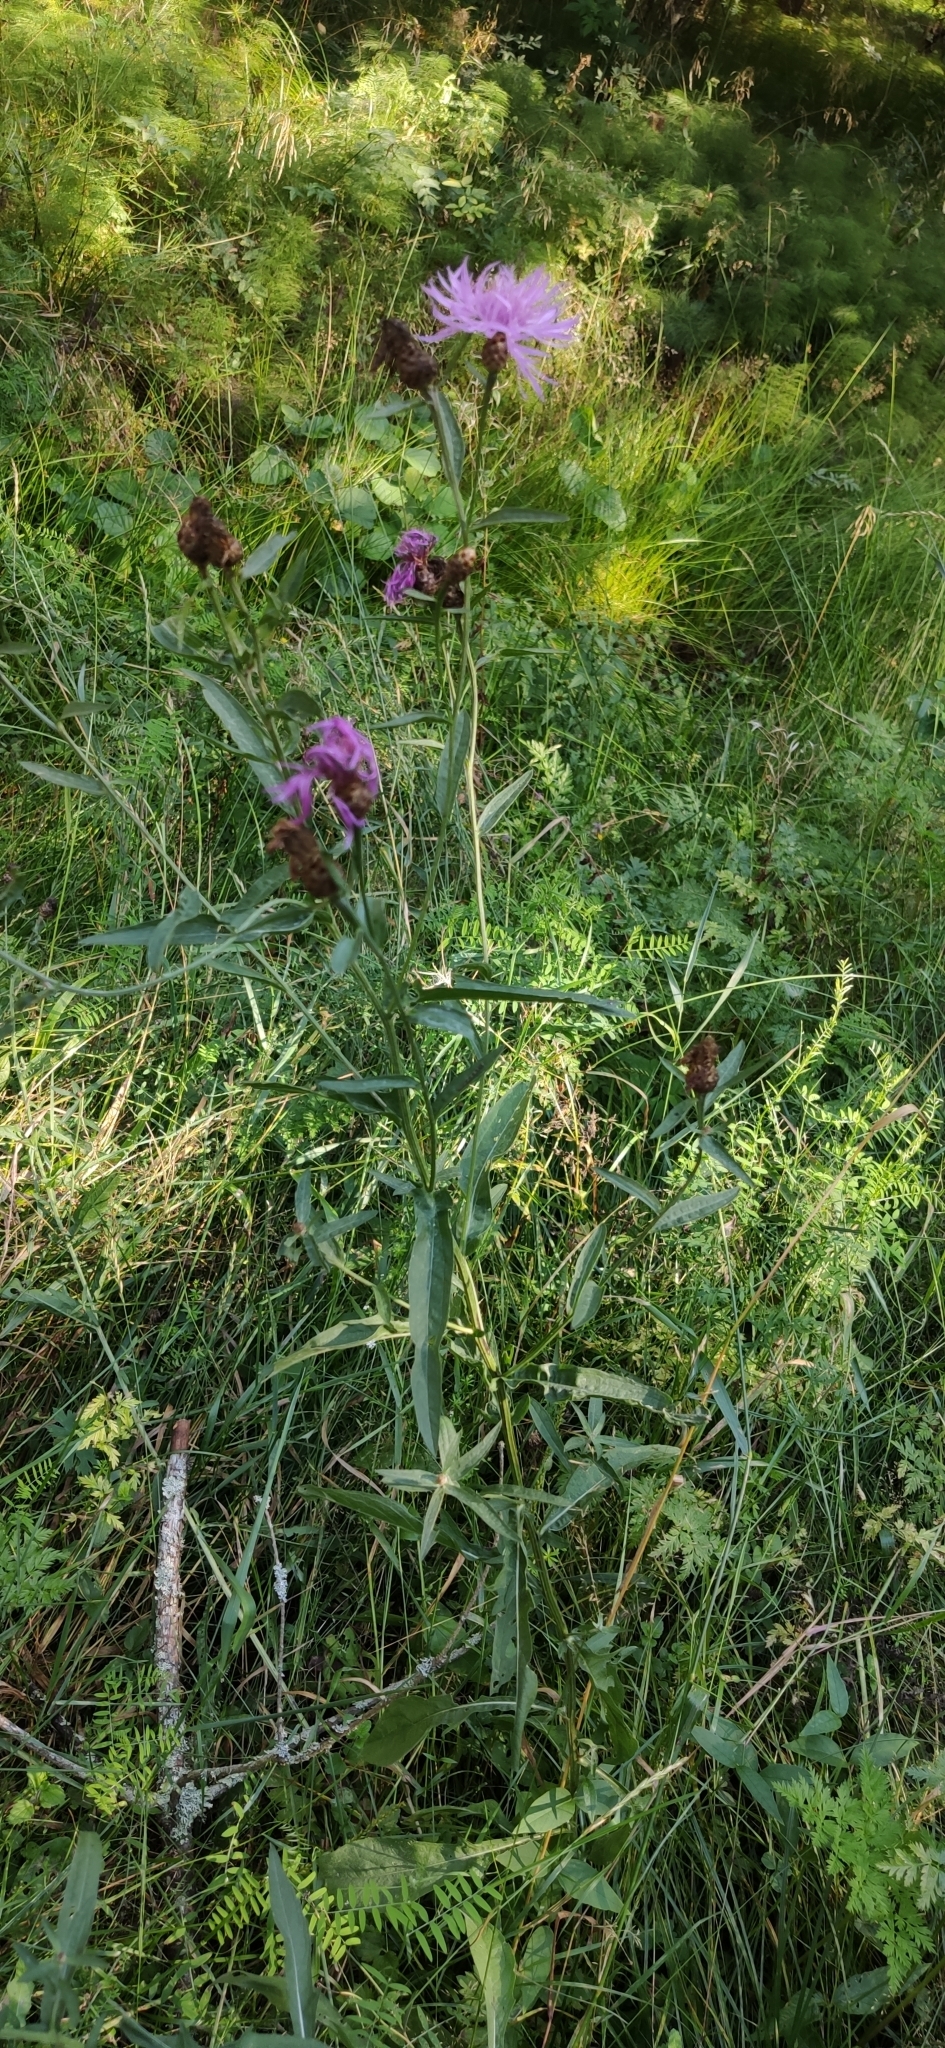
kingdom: Plantae
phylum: Tracheophyta
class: Magnoliopsida
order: Asterales
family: Asteraceae
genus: Centaurea
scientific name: Centaurea jacea
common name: Brown knapweed
